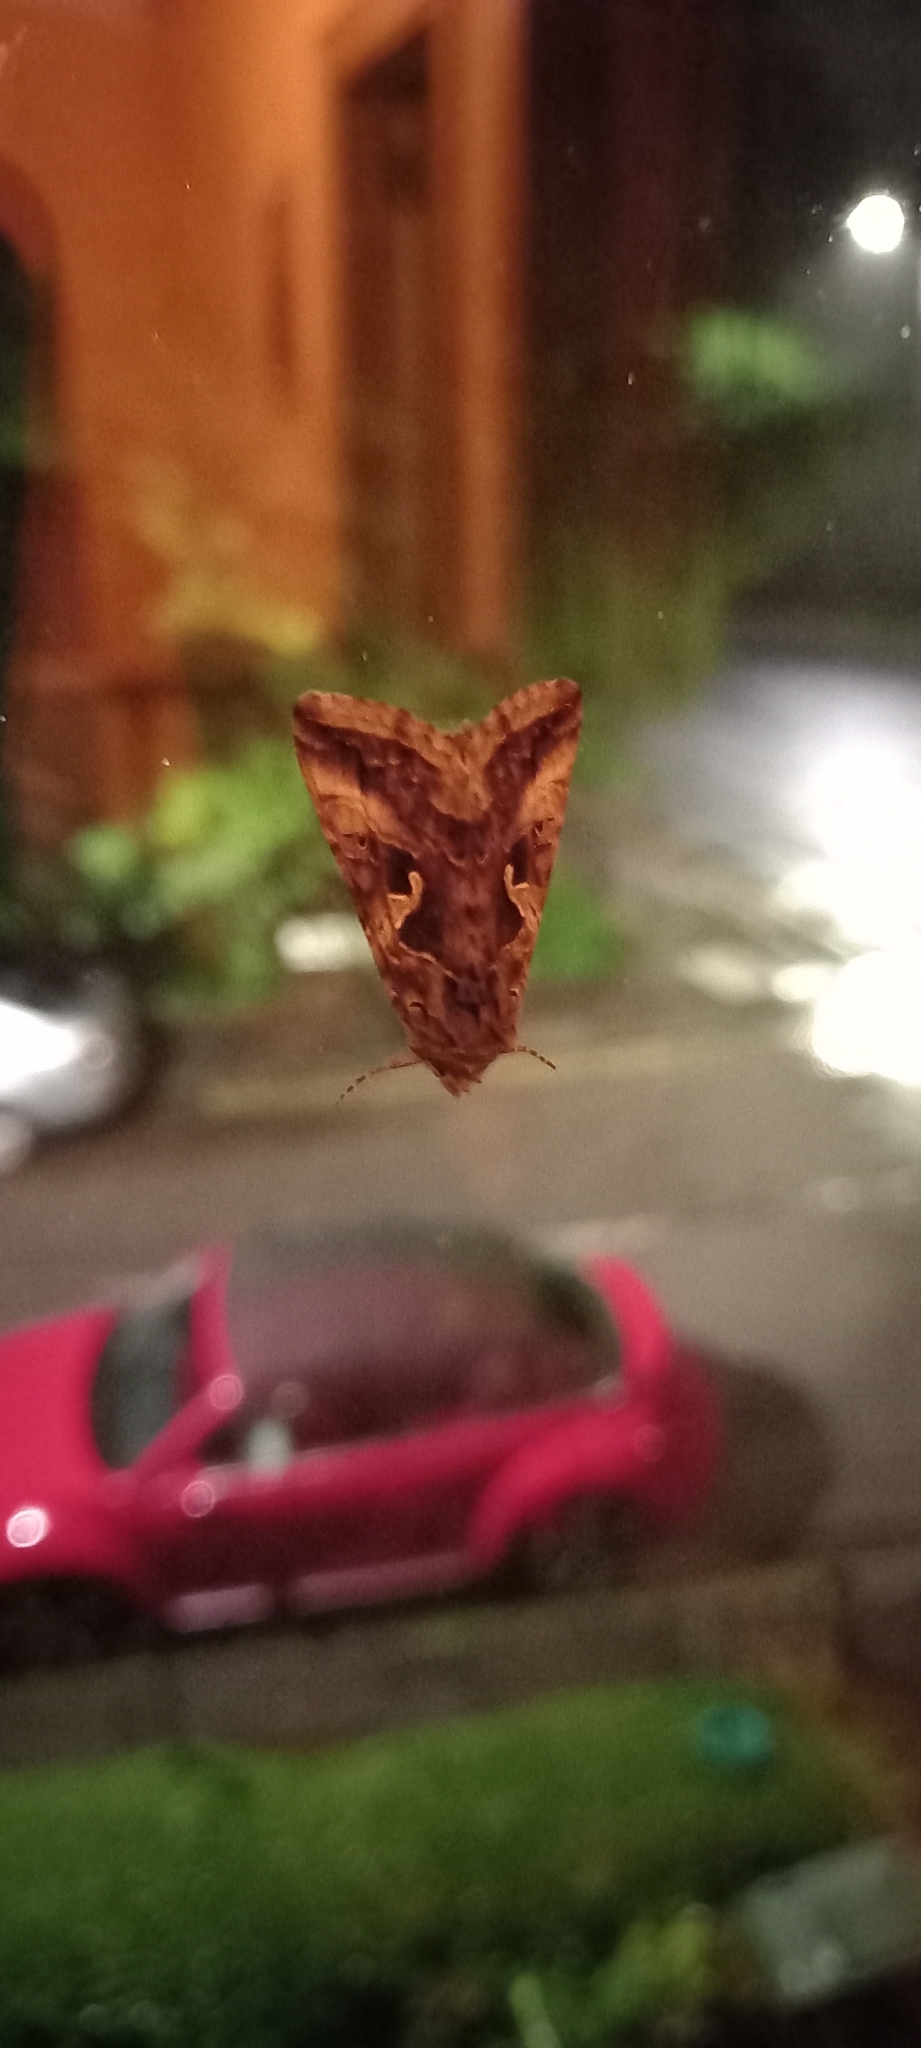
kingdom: Animalia
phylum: Arthropoda
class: Insecta
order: Lepidoptera
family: Noctuidae
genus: Autographa
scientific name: Autographa gamma
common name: Silver y
